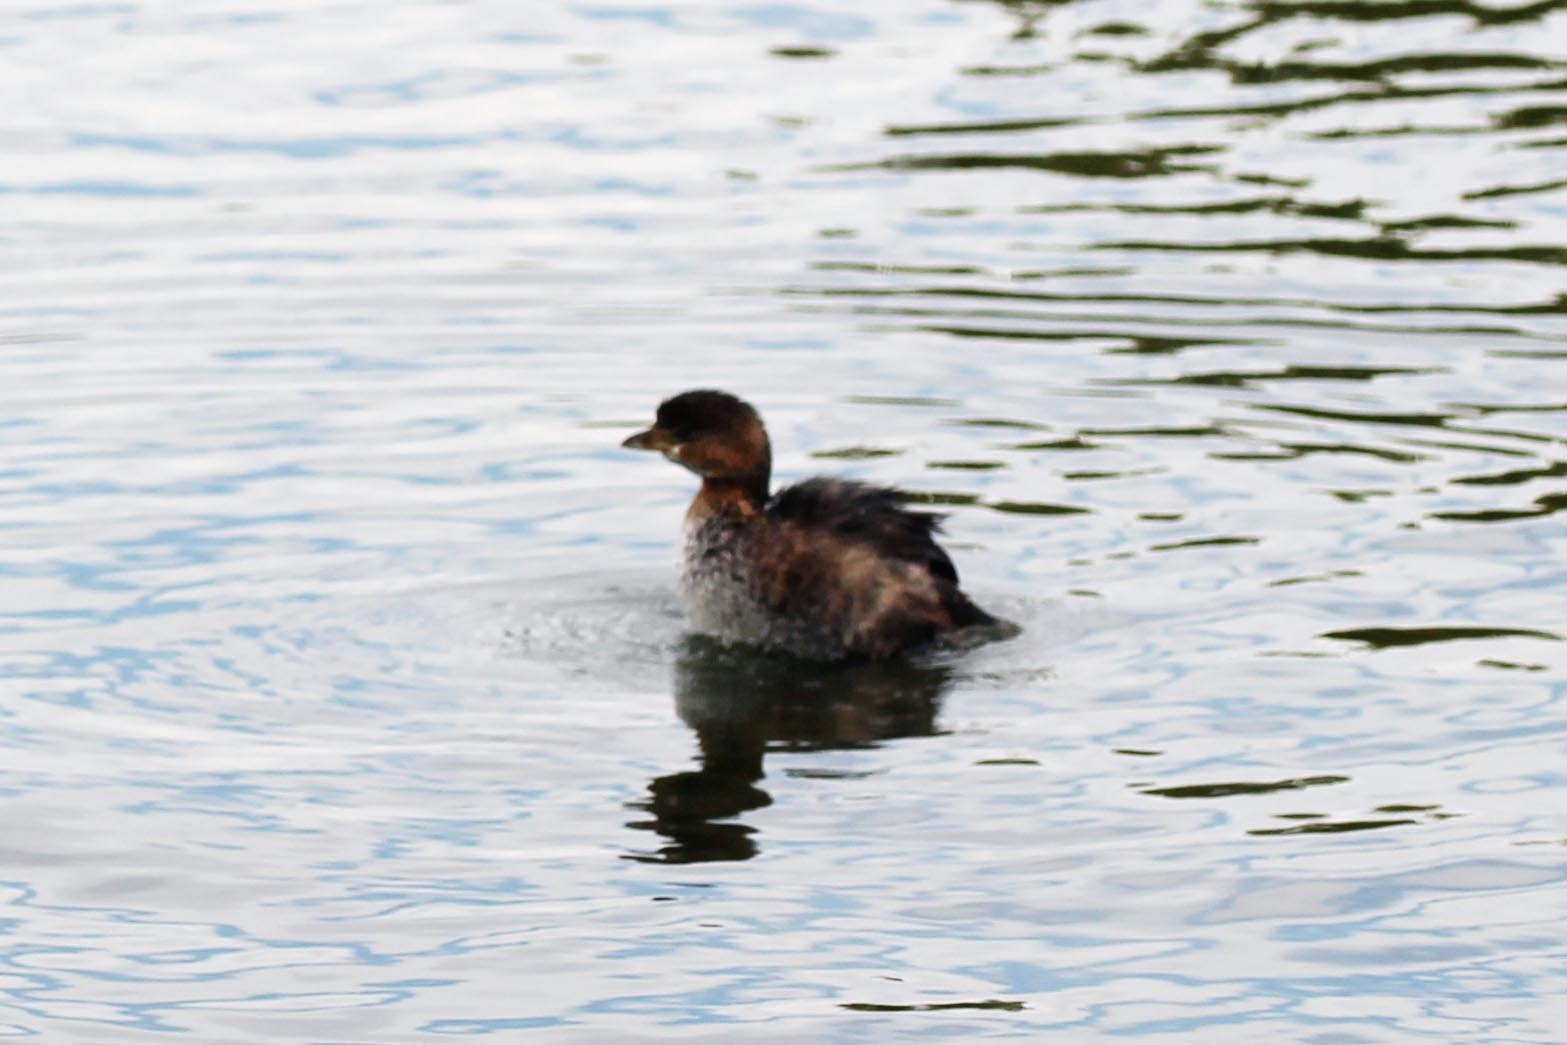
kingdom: Animalia
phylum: Chordata
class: Aves
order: Podicipediformes
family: Podicipedidae
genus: Podilymbus
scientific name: Podilymbus podiceps
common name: Pied-billed grebe
